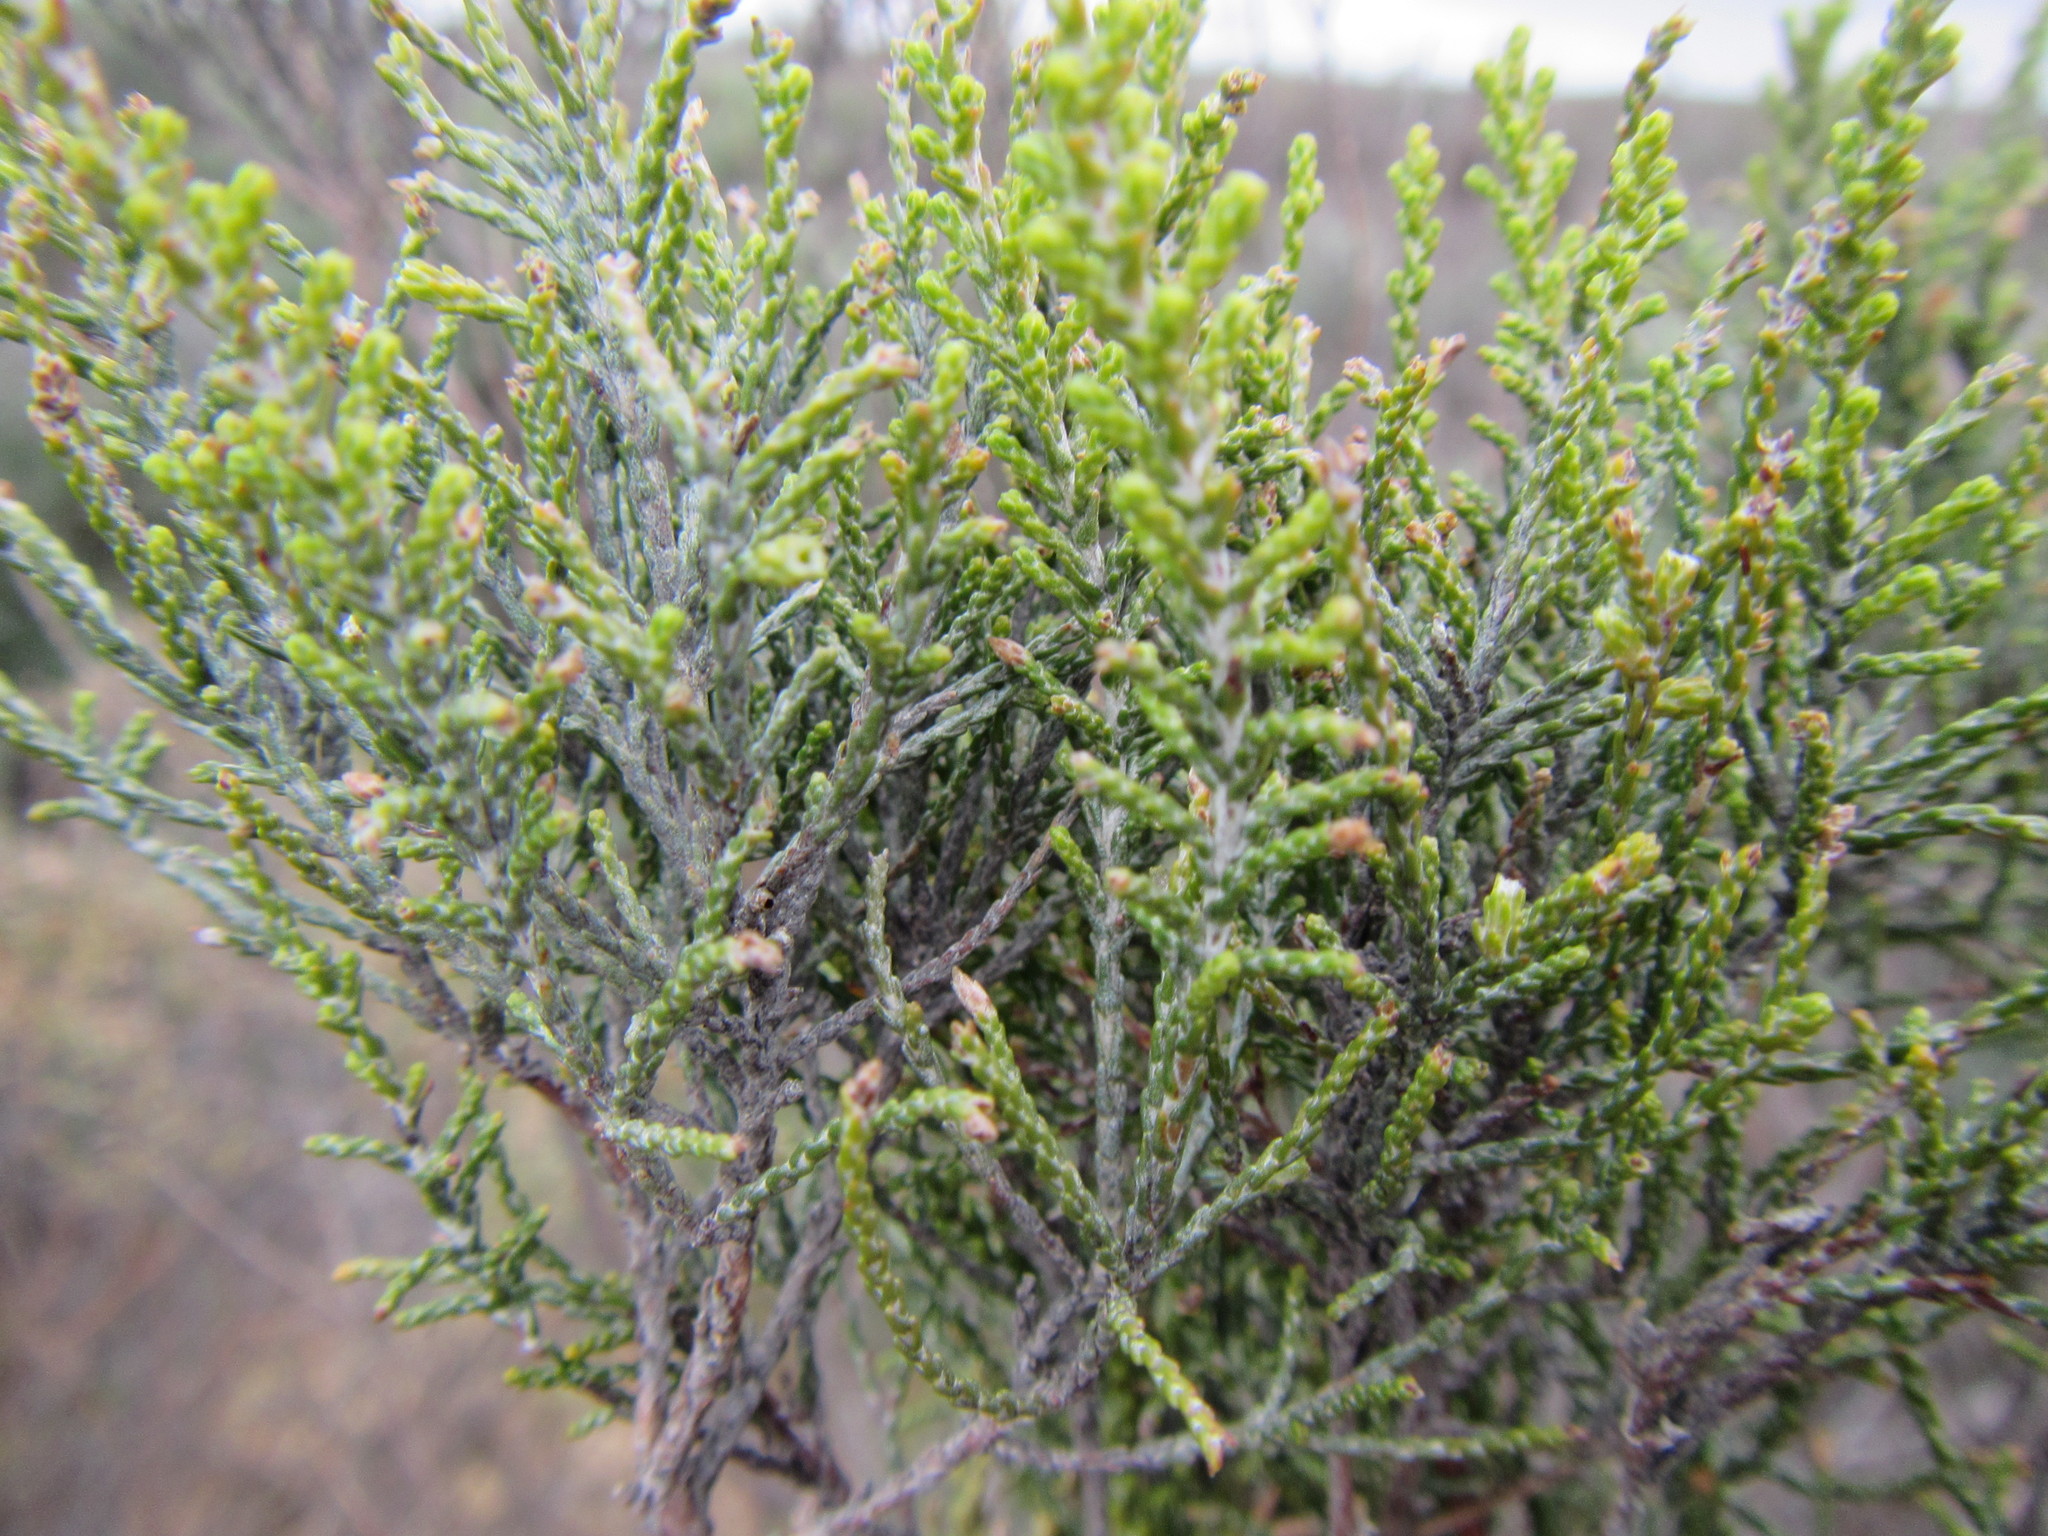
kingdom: Plantae
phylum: Tracheophyta
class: Magnoliopsida
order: Asterales
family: Asteraceae
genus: Dicerothamnus
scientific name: Dicerothamnus rhinocerotis
